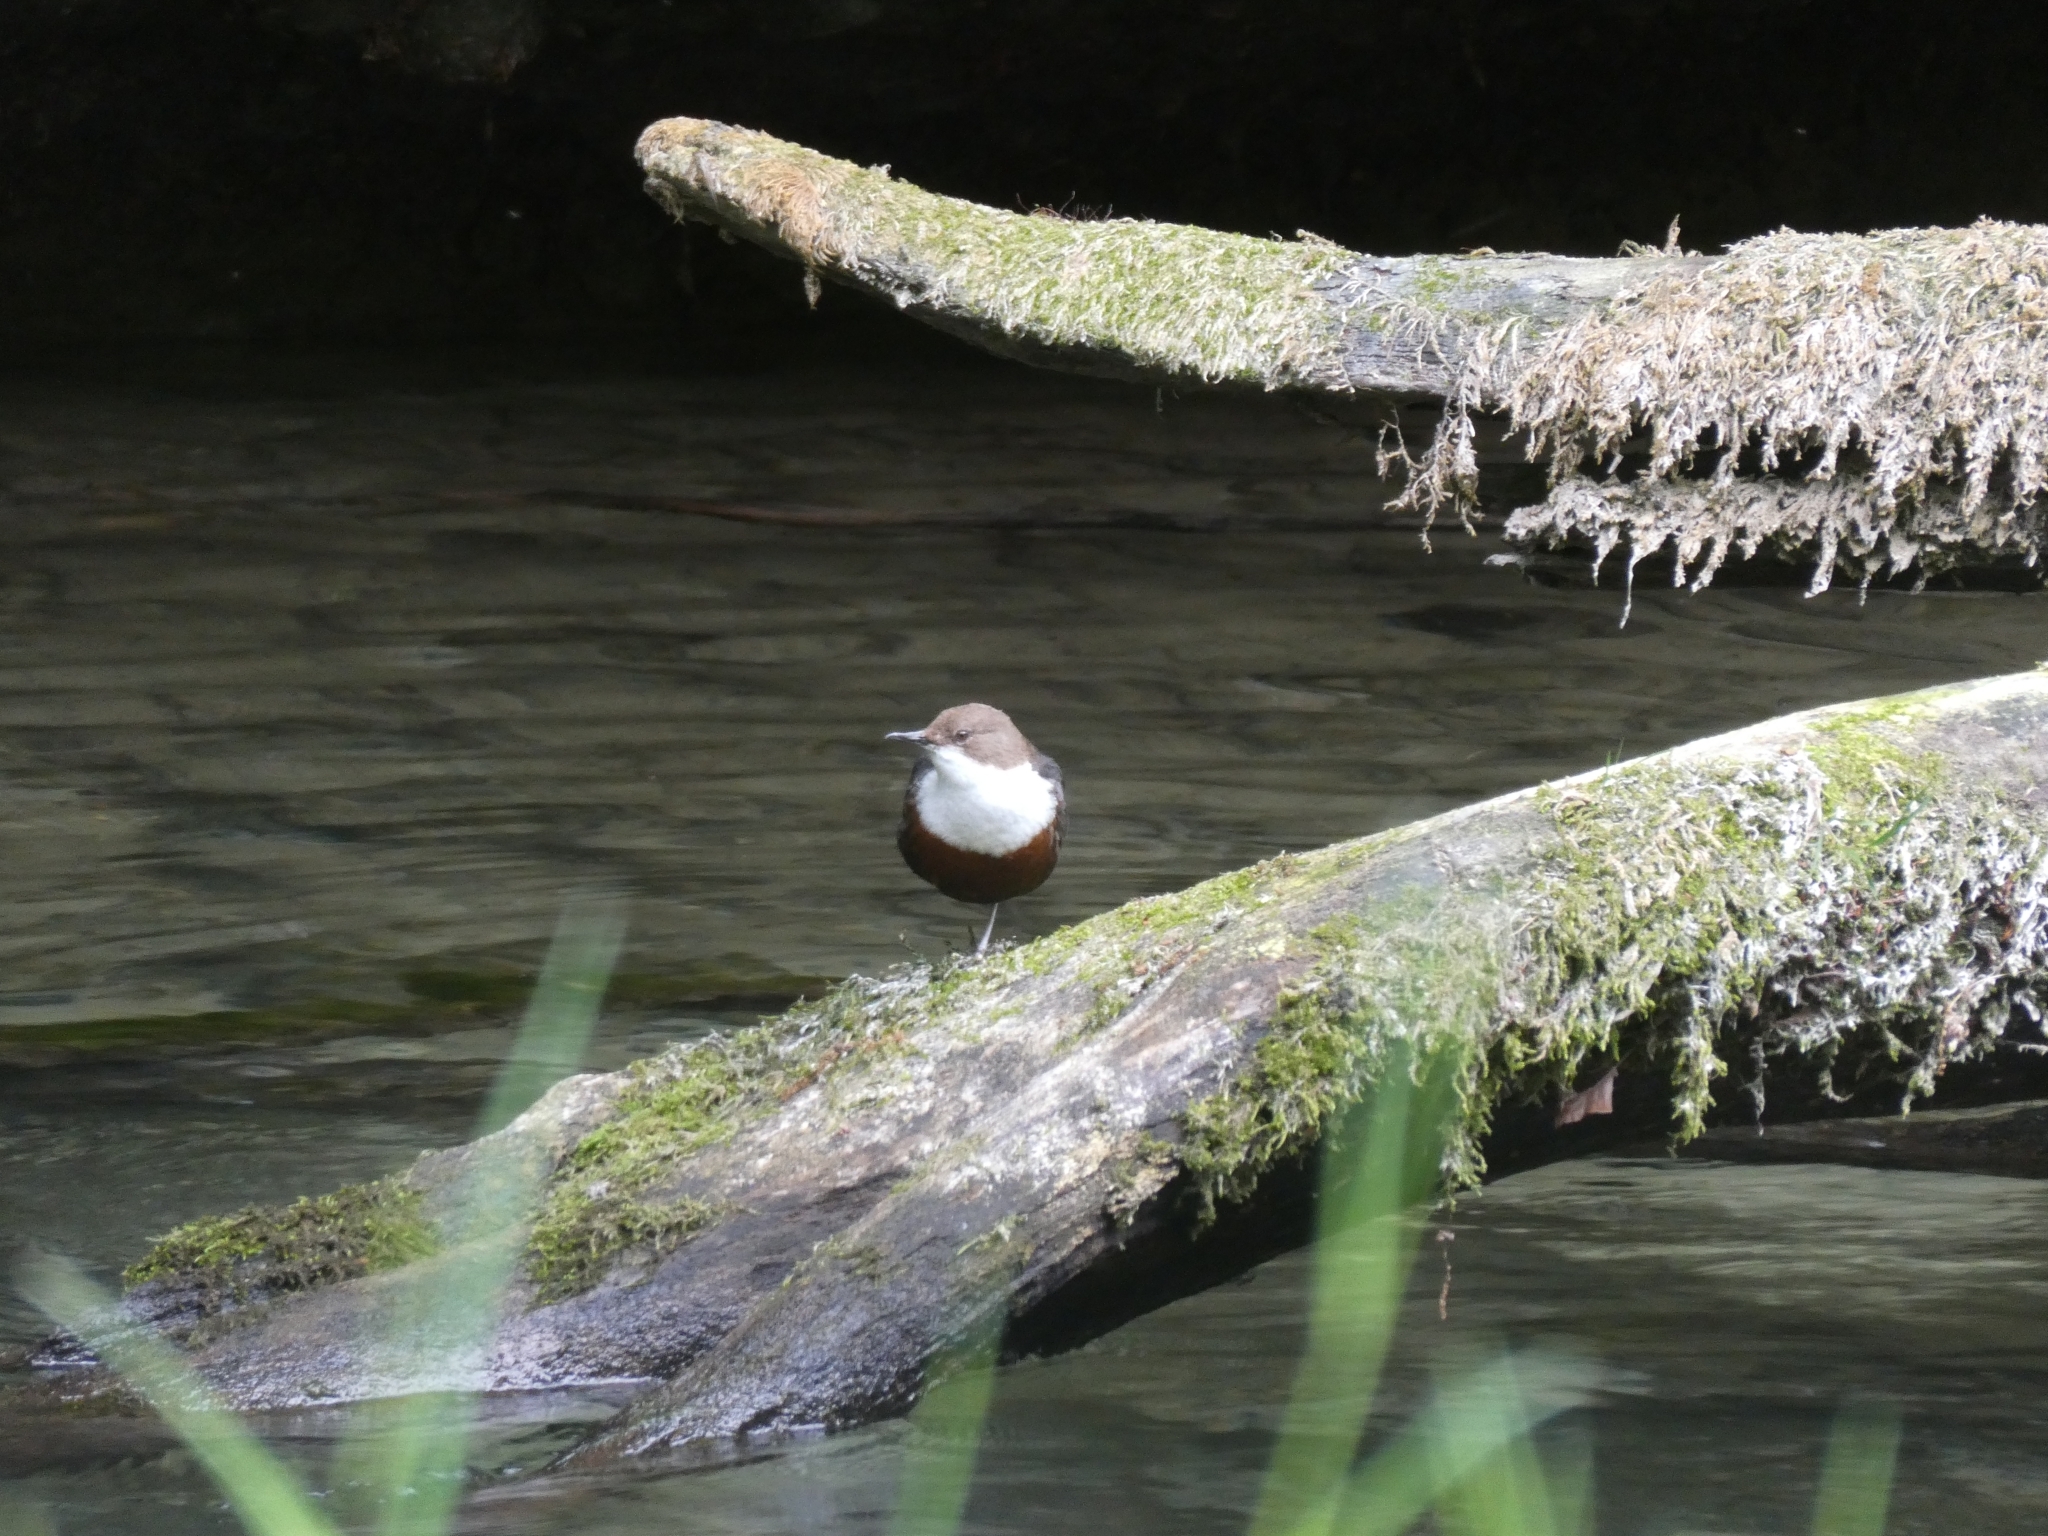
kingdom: Animalia
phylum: Chordata
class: Aves
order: Passeriformes
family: Cinclidae
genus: Cinclus
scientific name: Cinclus cinclus
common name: White-throated dipper
